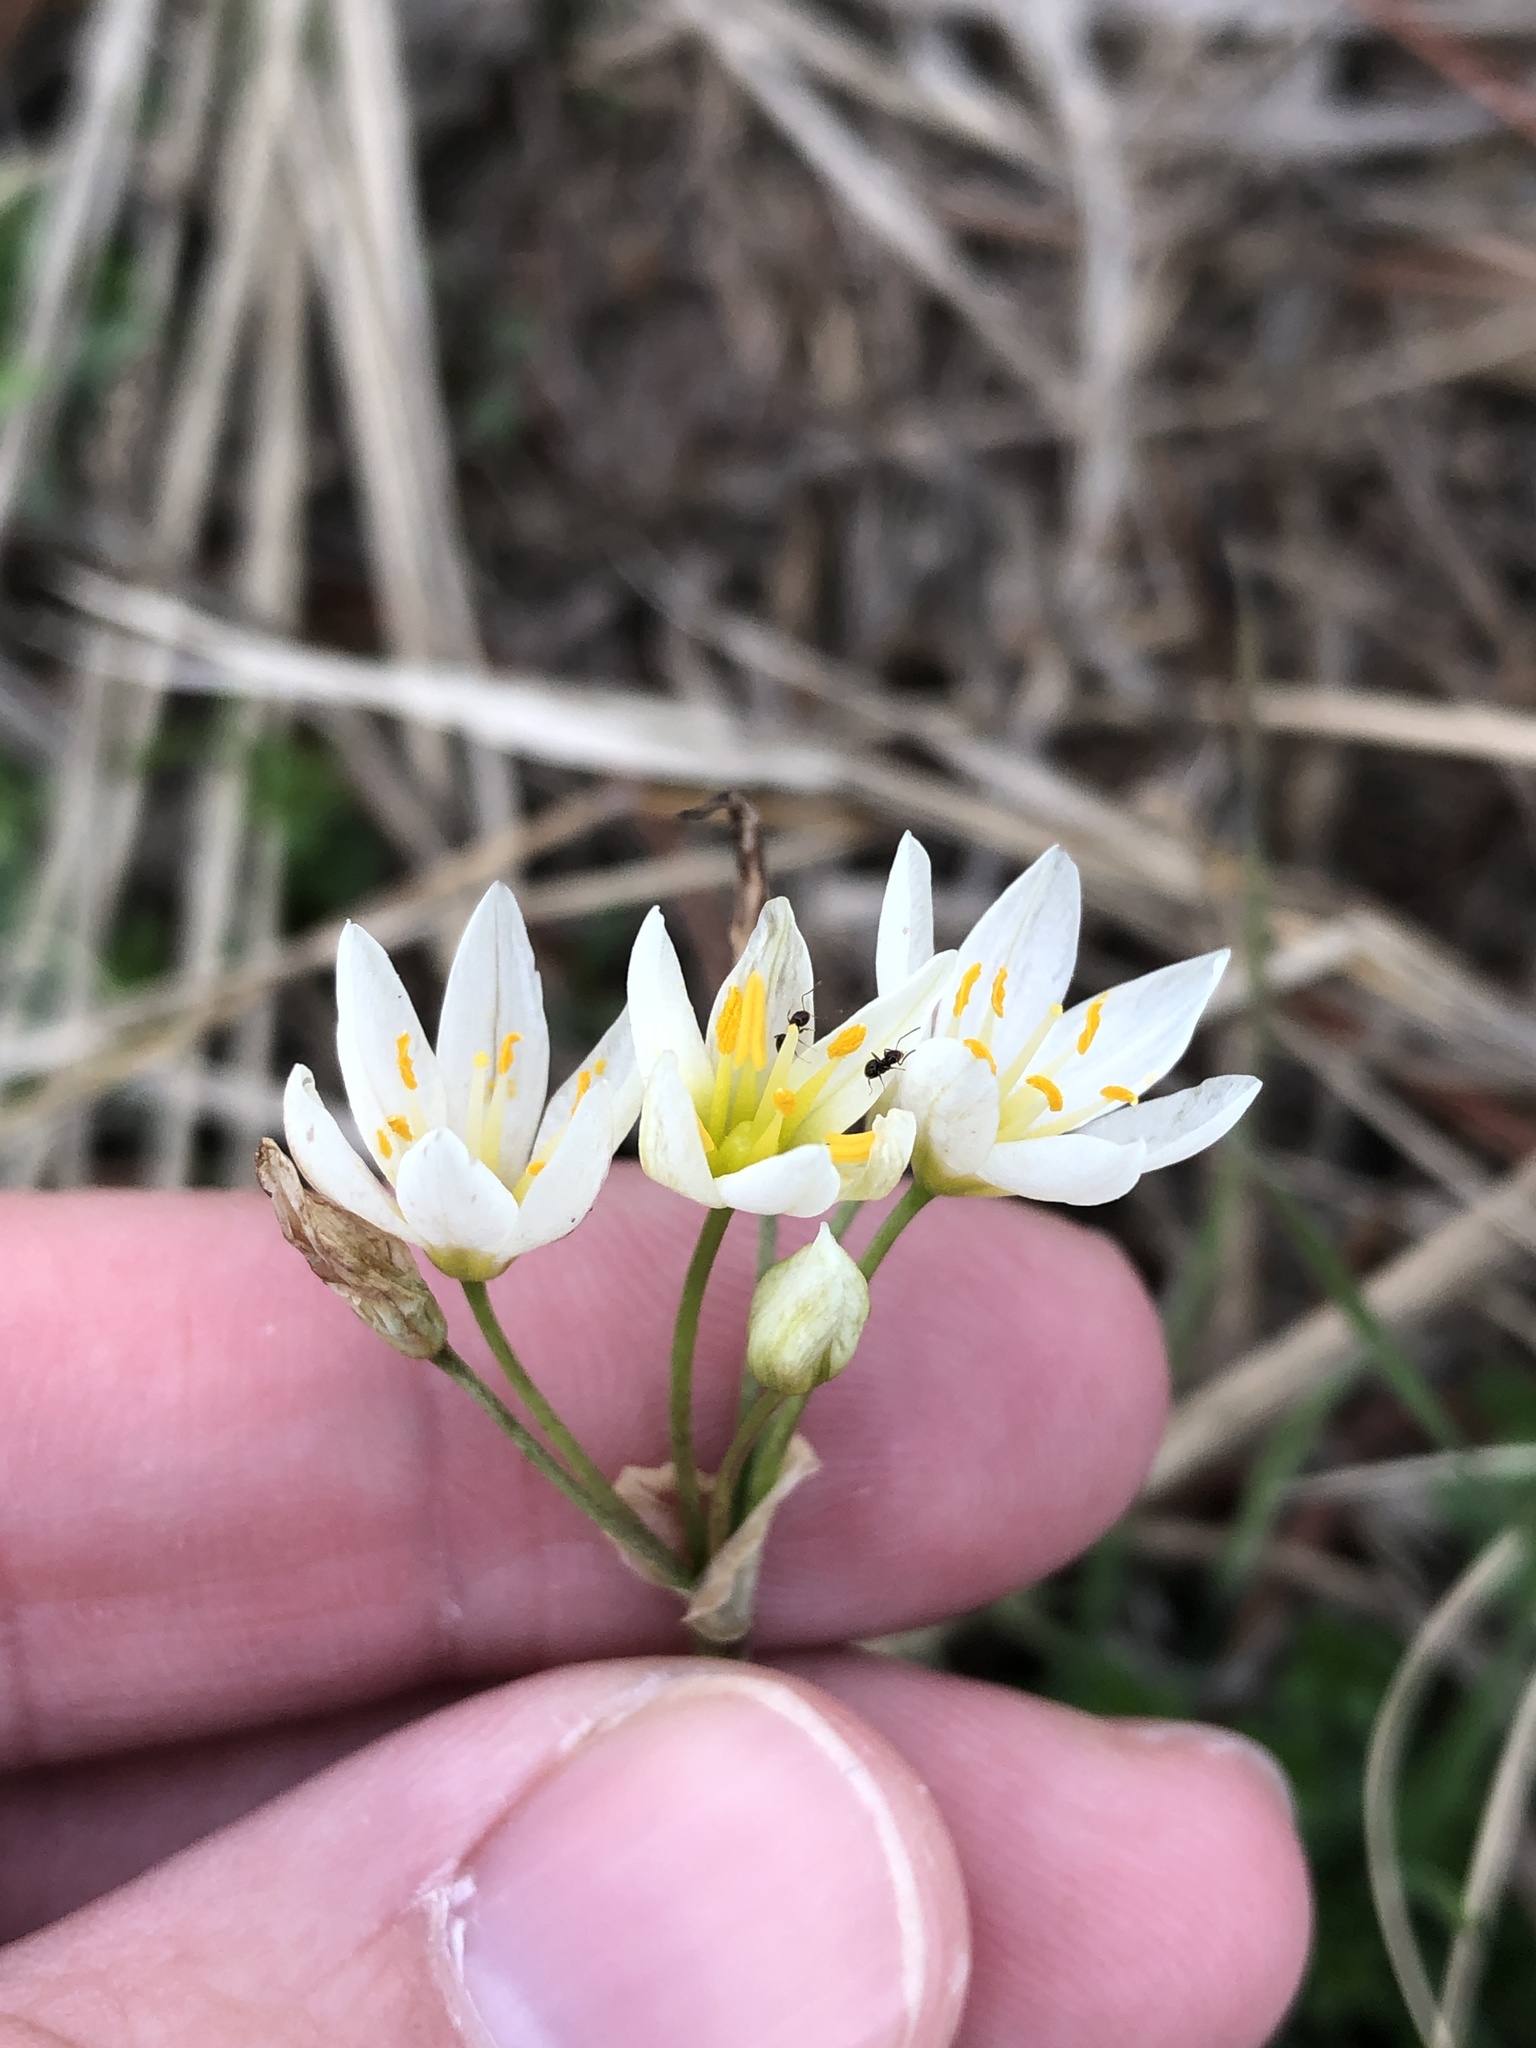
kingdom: Plantae
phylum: Tracheophyta
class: Liliopsida
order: Asparagales
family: Amaryllidaceae
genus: Nothoscordum
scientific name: Nothoscordum bivalve
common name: Crow-poison
